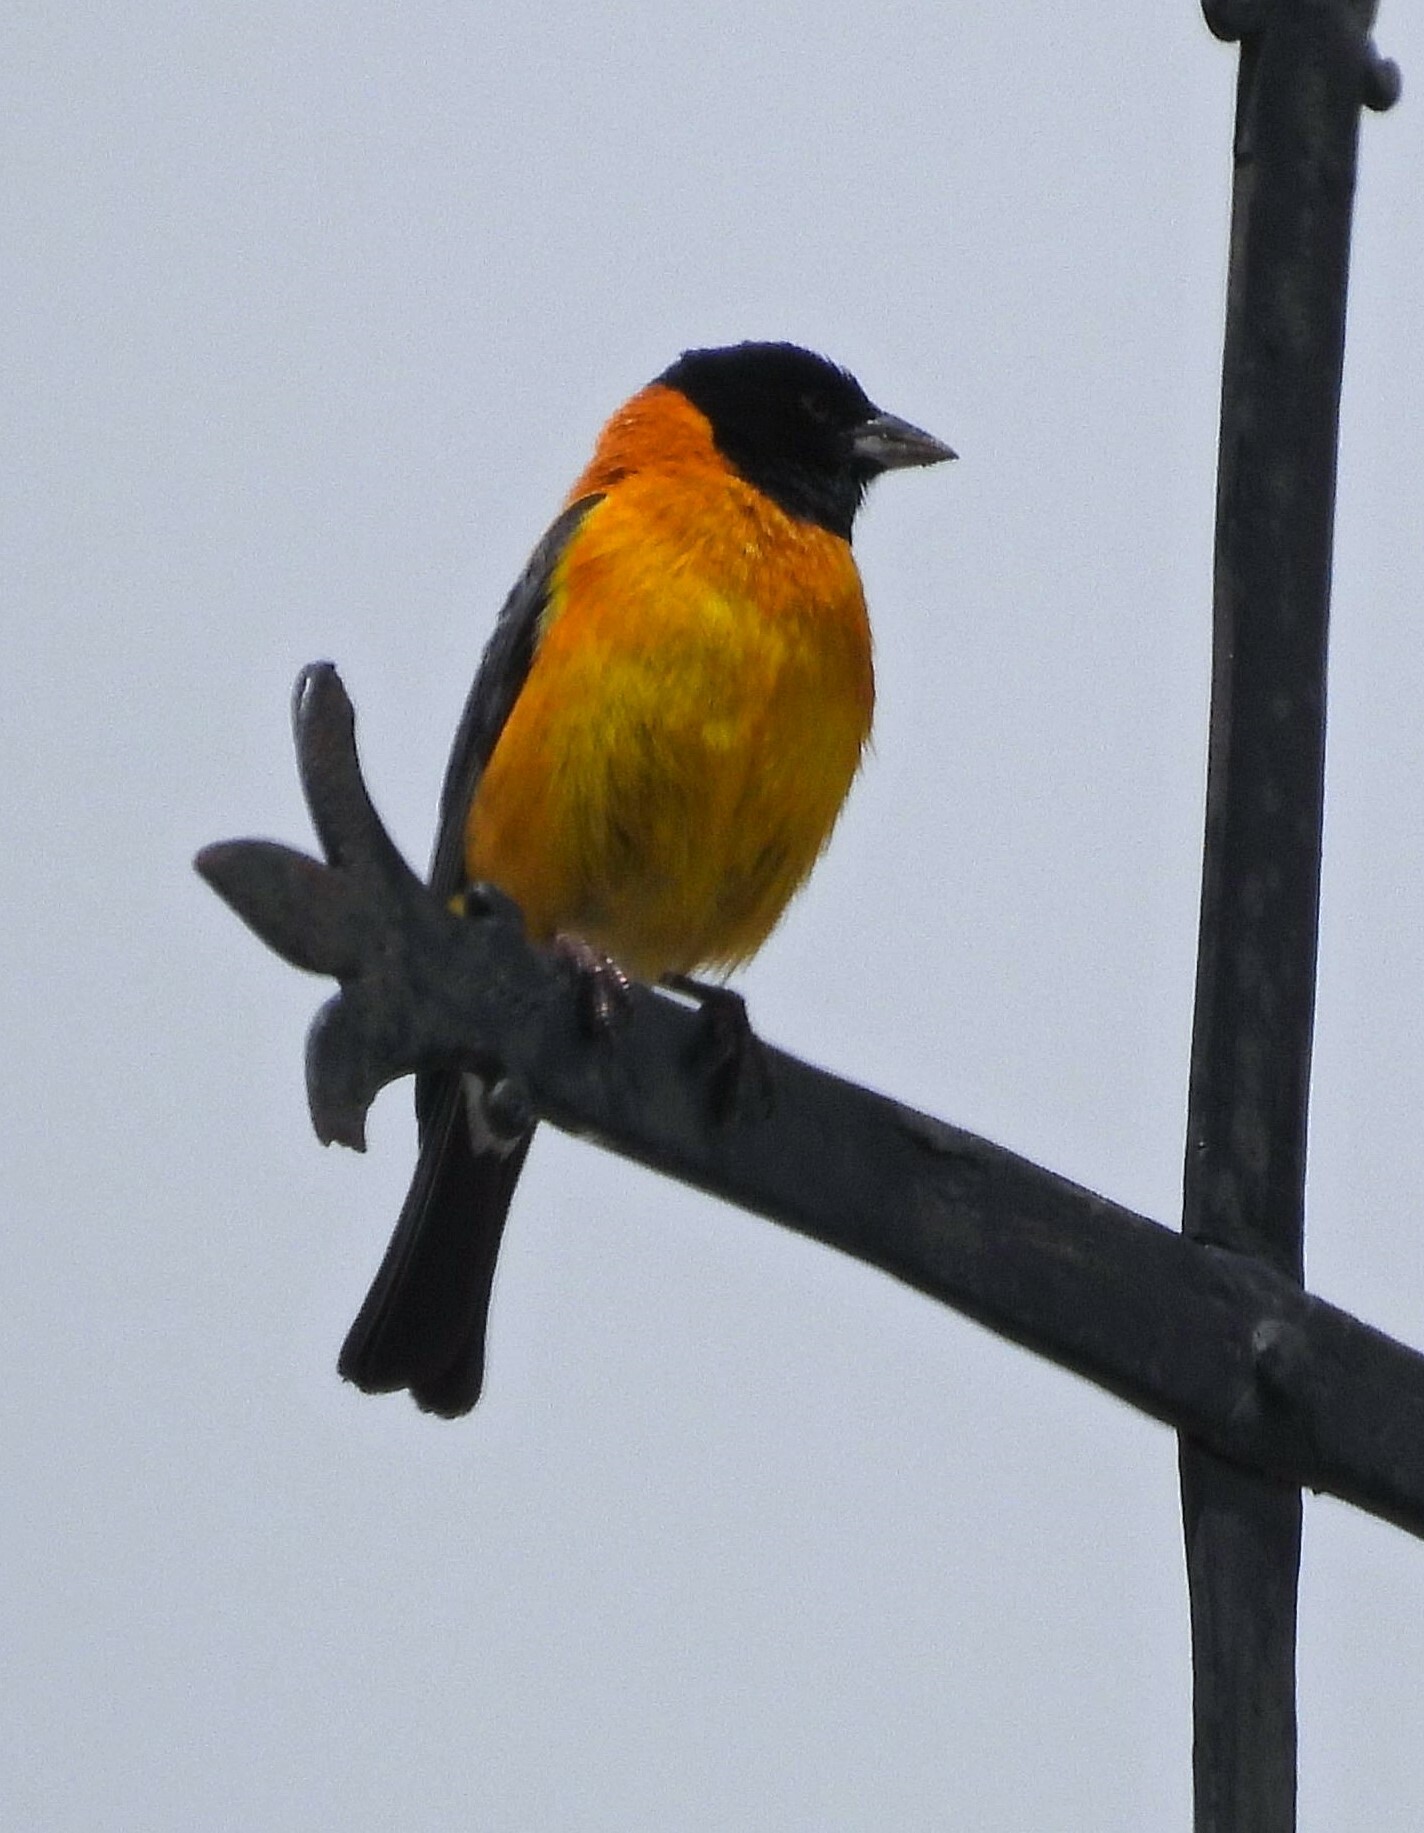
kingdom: Animalia
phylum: Chordata
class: Aves
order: Passeriformes
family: Thraupidae
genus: Phrygilus
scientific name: Phrygilus atriceps
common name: Black-hooded sierra finch
